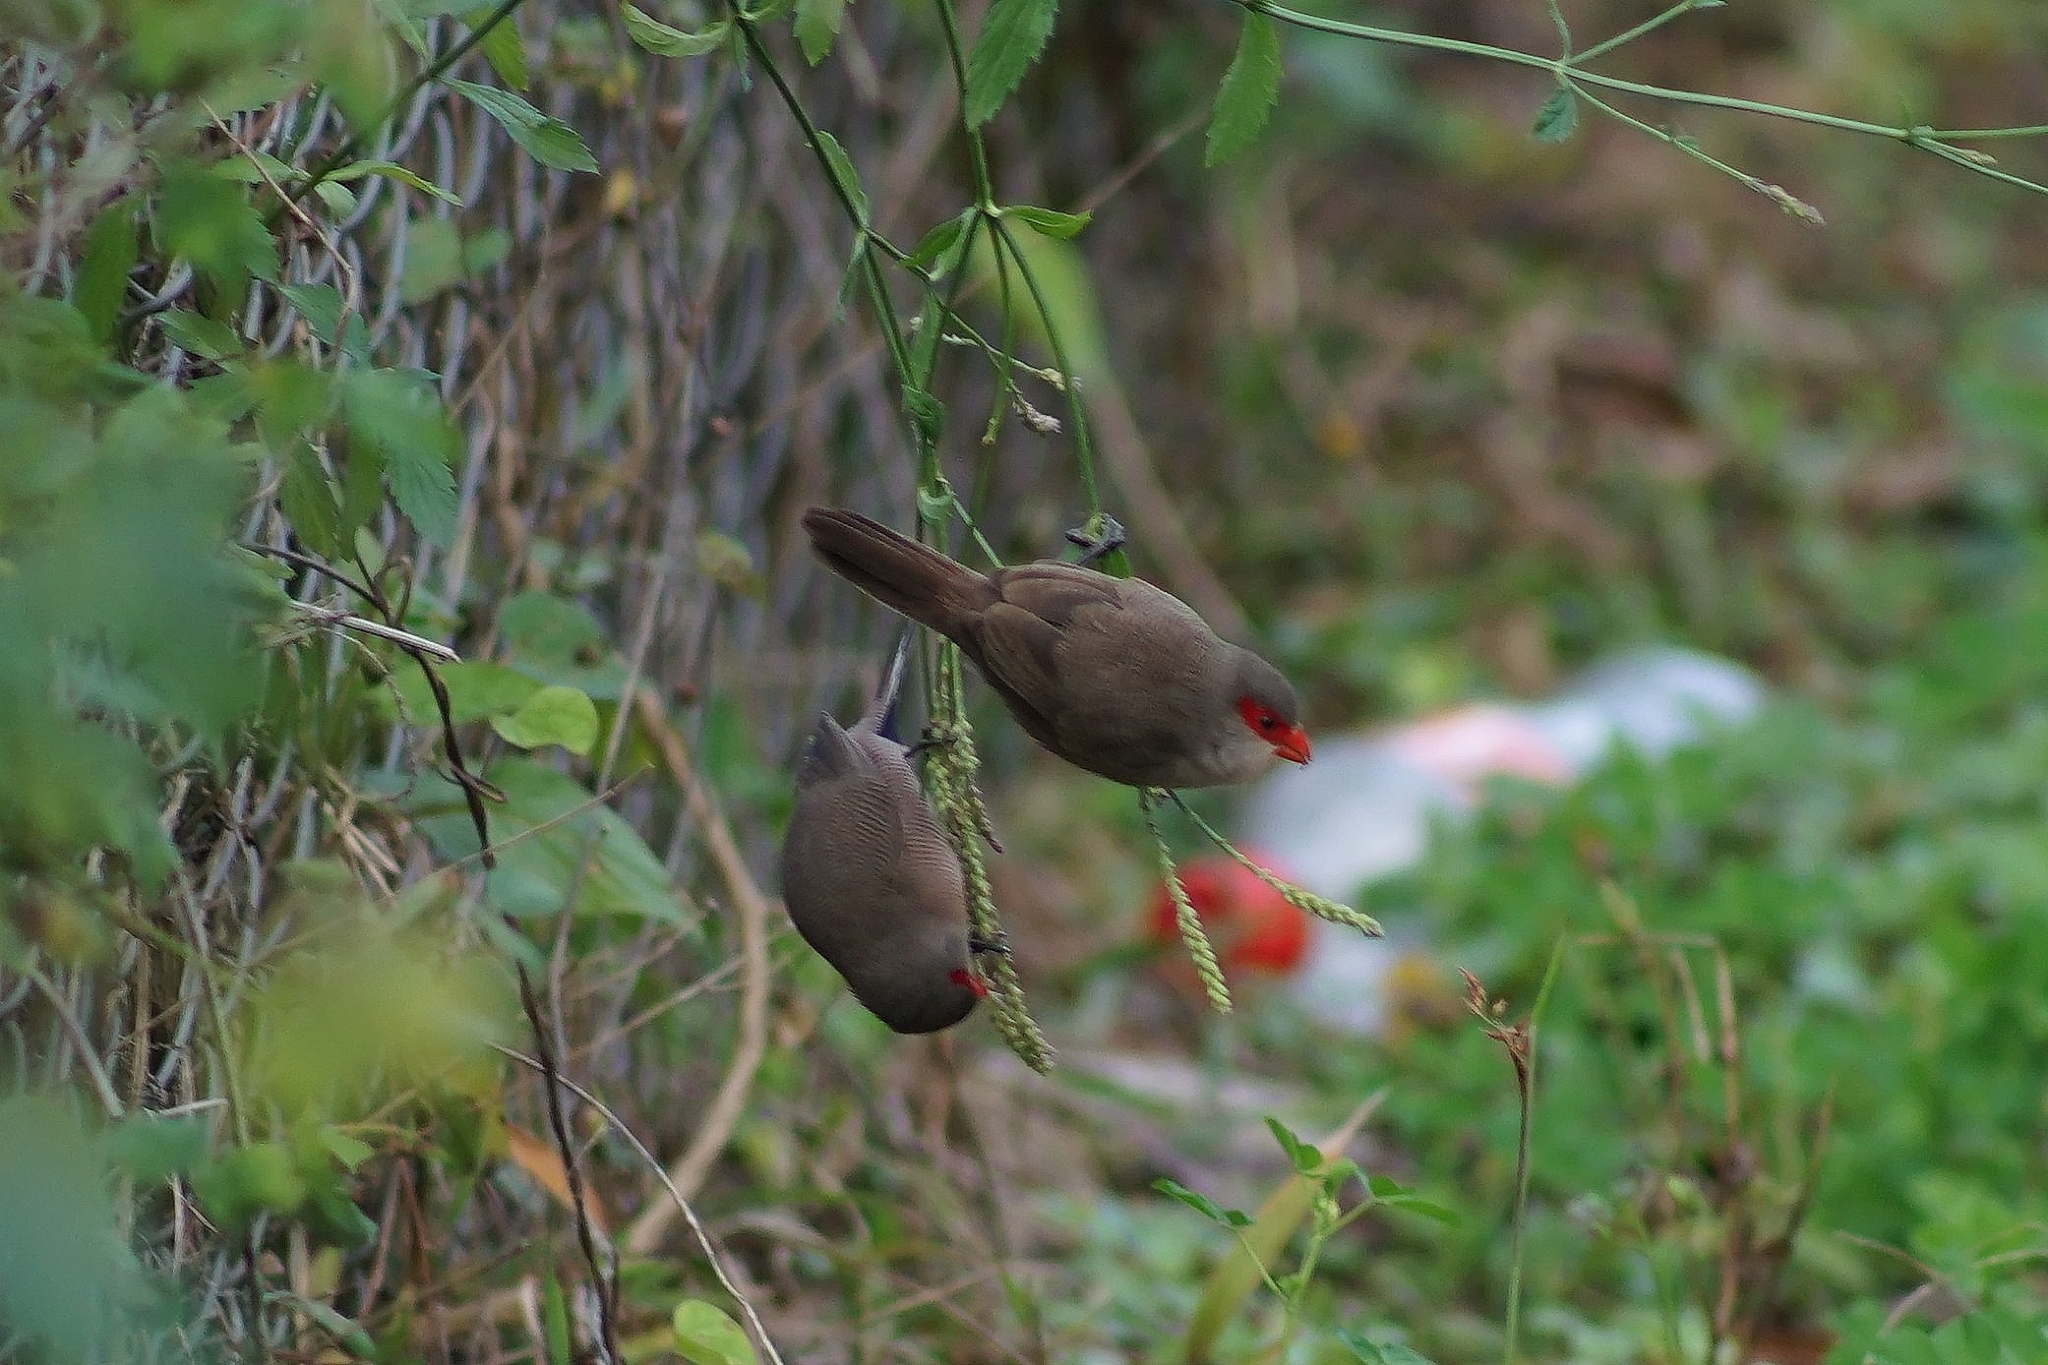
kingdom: Animalia
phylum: Chordata
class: Aves
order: Passeriformes
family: Estrildidae
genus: Estrilda
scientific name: Estrilda astrild
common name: Common waxbill
